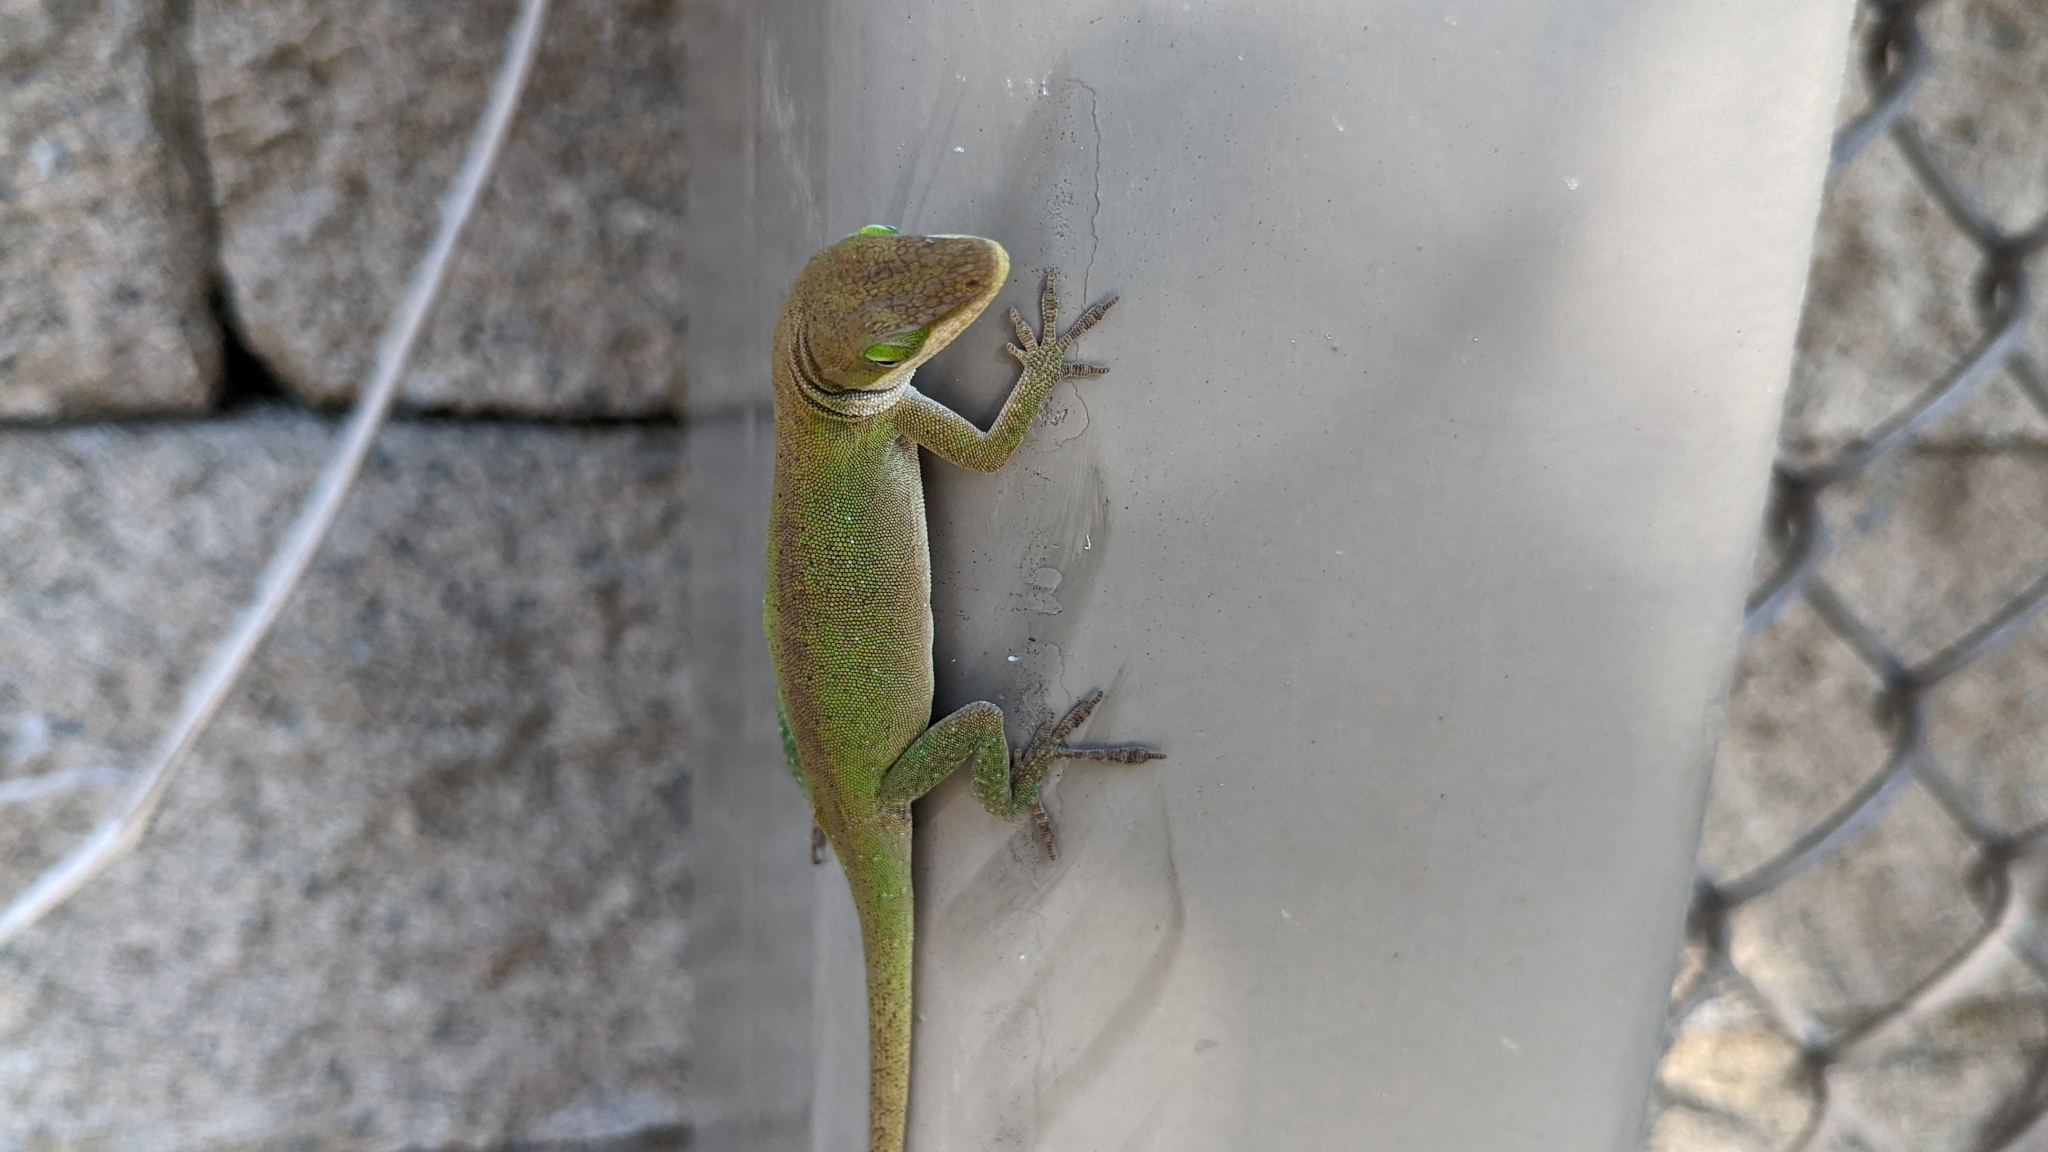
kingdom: Animalia
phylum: Chordata
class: Squamata
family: Dactyloidae
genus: Anolis
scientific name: Anolis carolinensis
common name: Green anole
